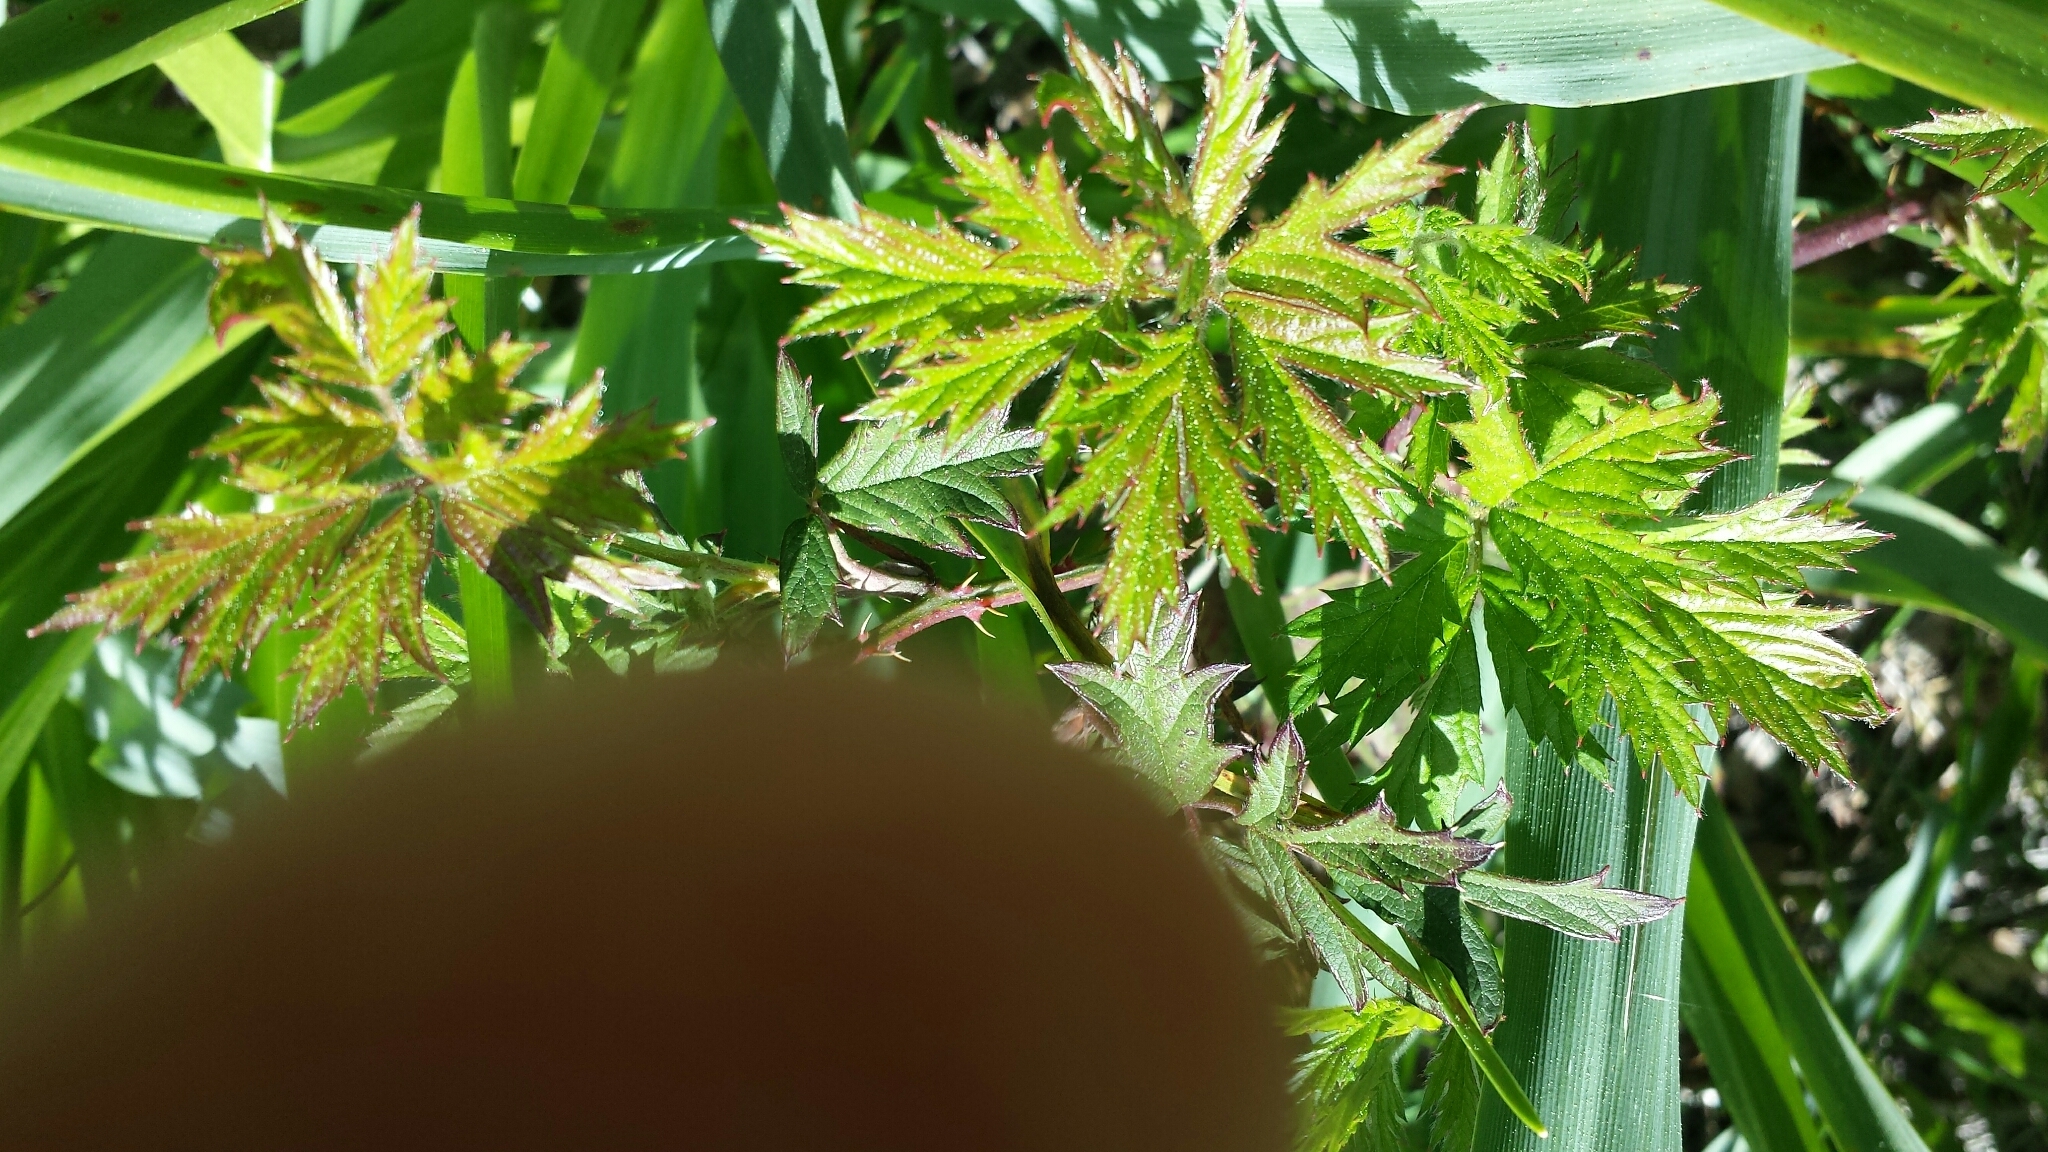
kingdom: Plantae
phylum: Tracheophyta
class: Magnoliopsida
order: Rosales
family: Rosaceae
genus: Rubus
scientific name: Rubus laciniatus
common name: Evergreen blackberry
